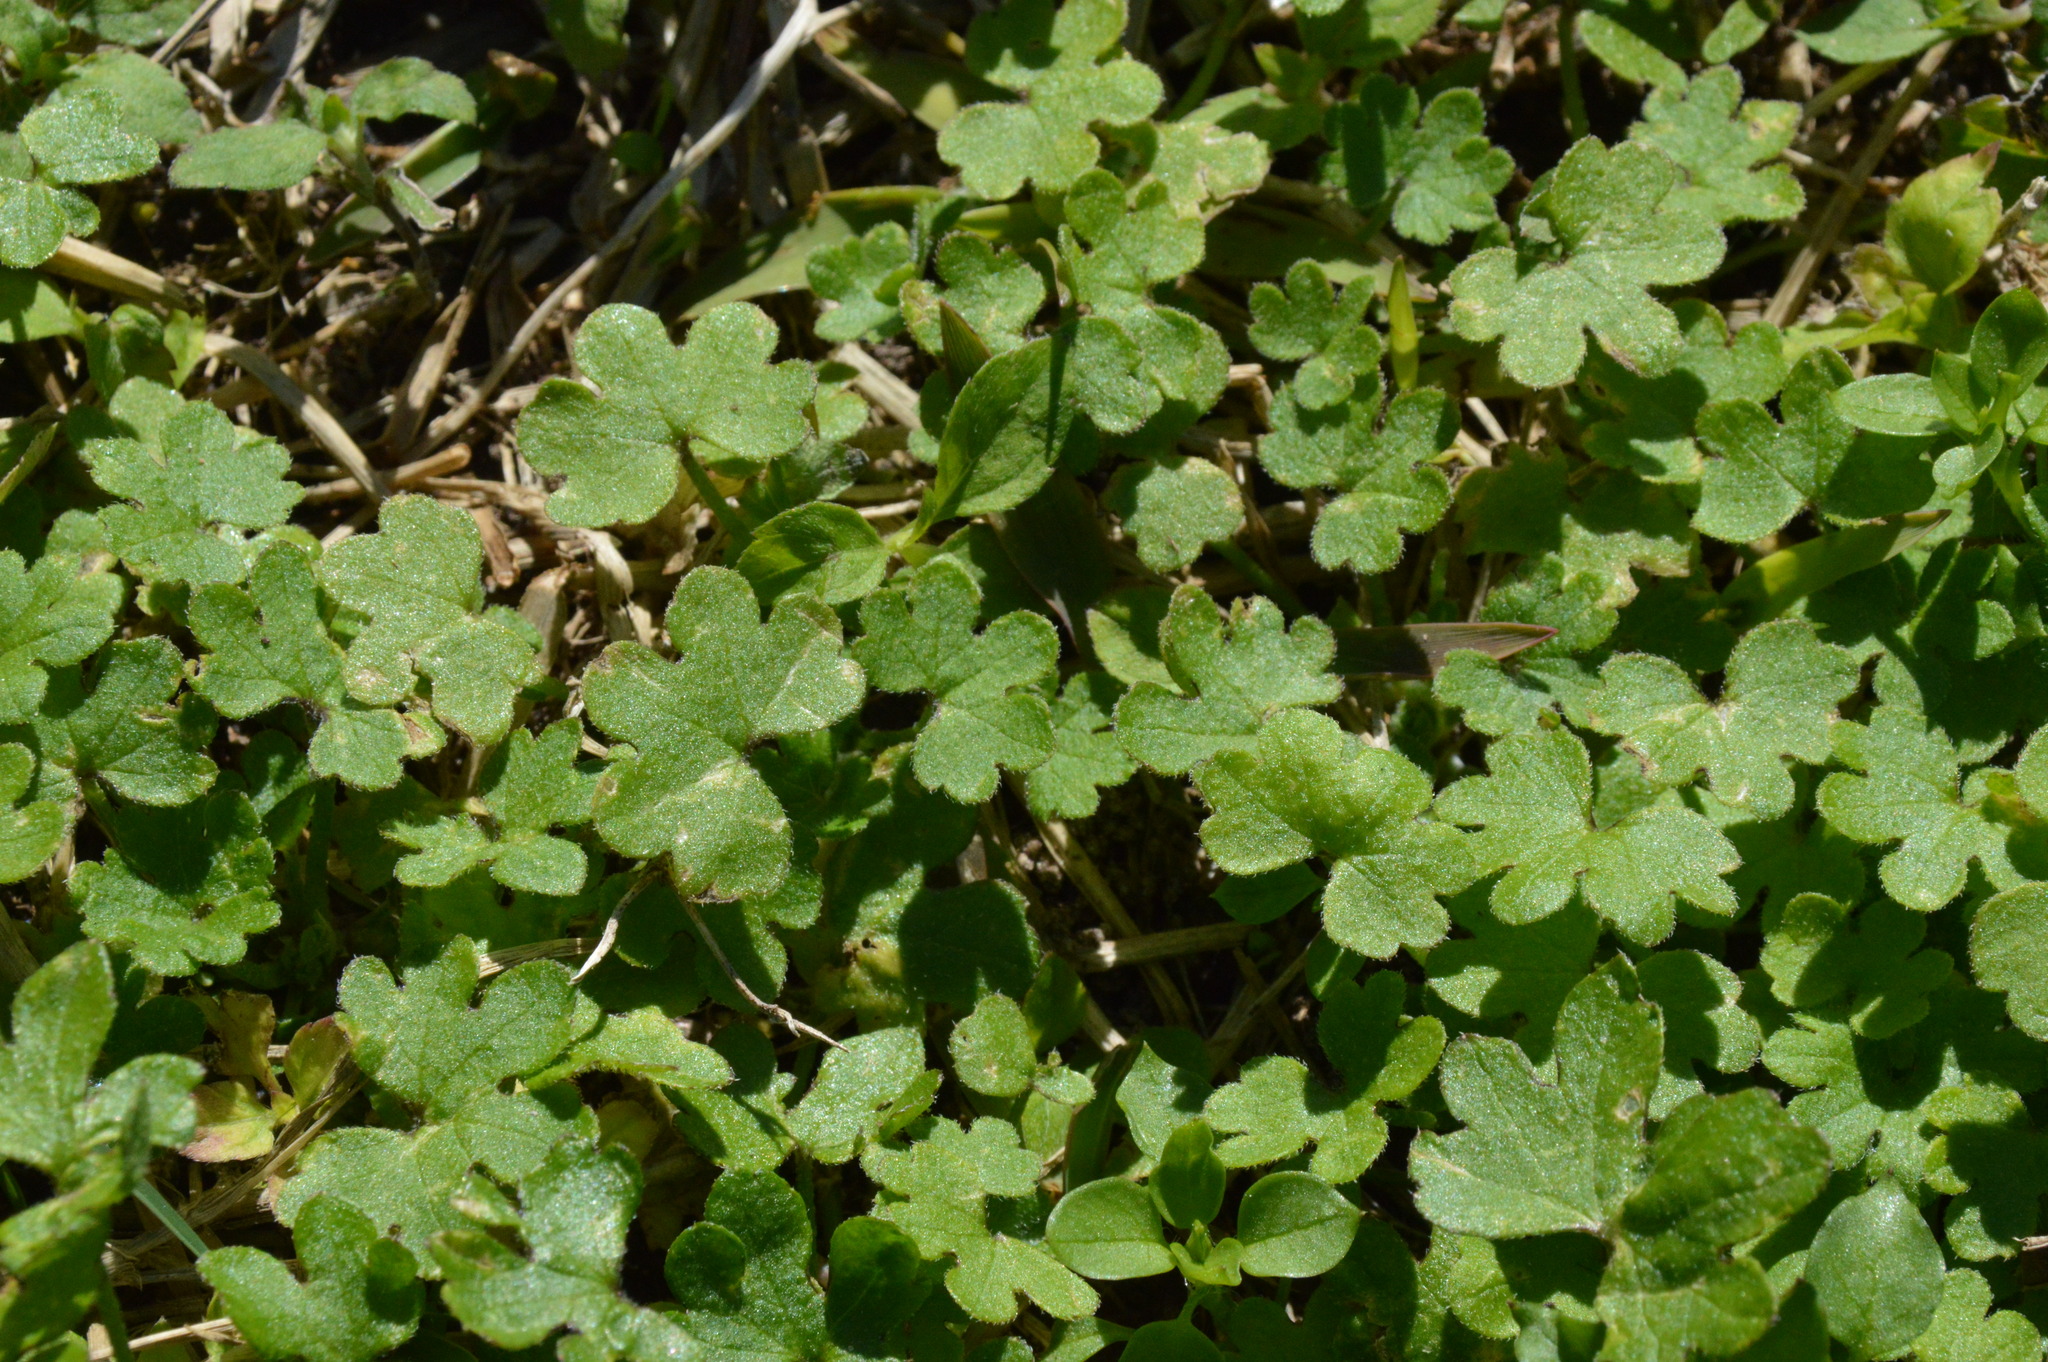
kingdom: Plantae
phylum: Tracheophyta
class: Magnoliopsida
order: Apiales
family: Apiaceae
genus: Bowlesia
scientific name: Bowlesia incana
